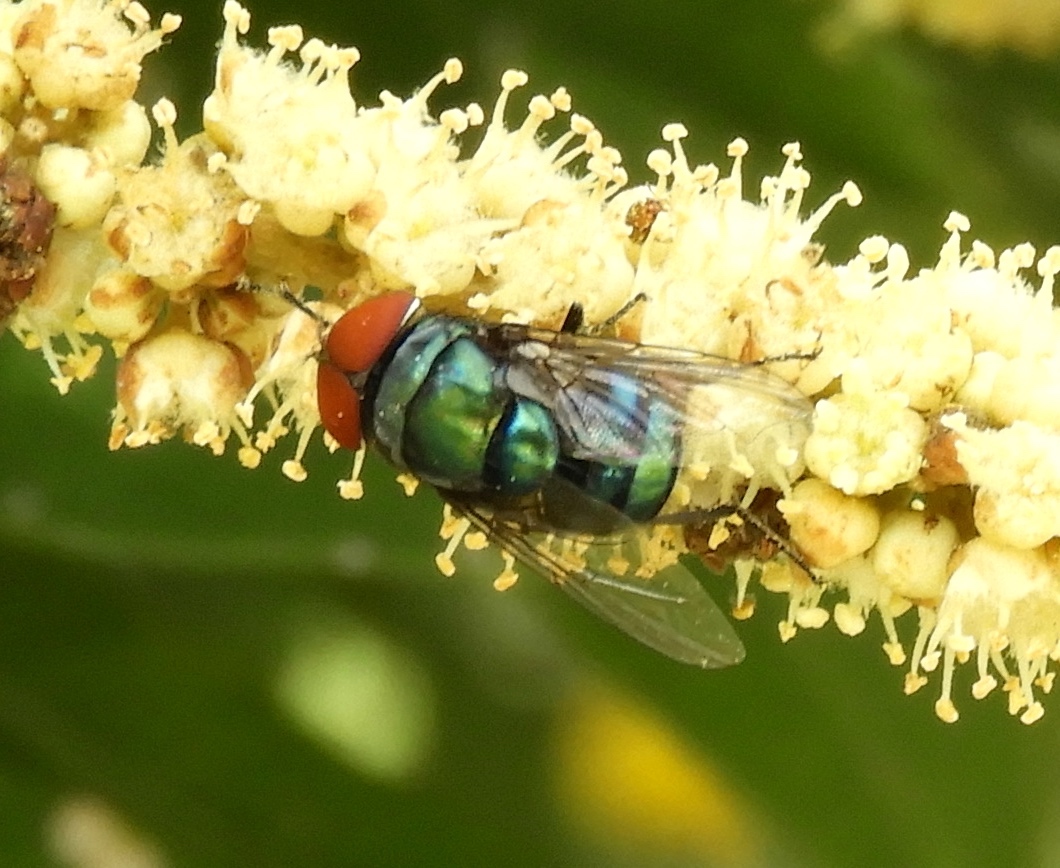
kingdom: Animalia
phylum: Arthropoda
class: Insecta
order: Diptera
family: Calliphoridae
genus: Chrysomya
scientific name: Chrysomya megacephala
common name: Blow fly
